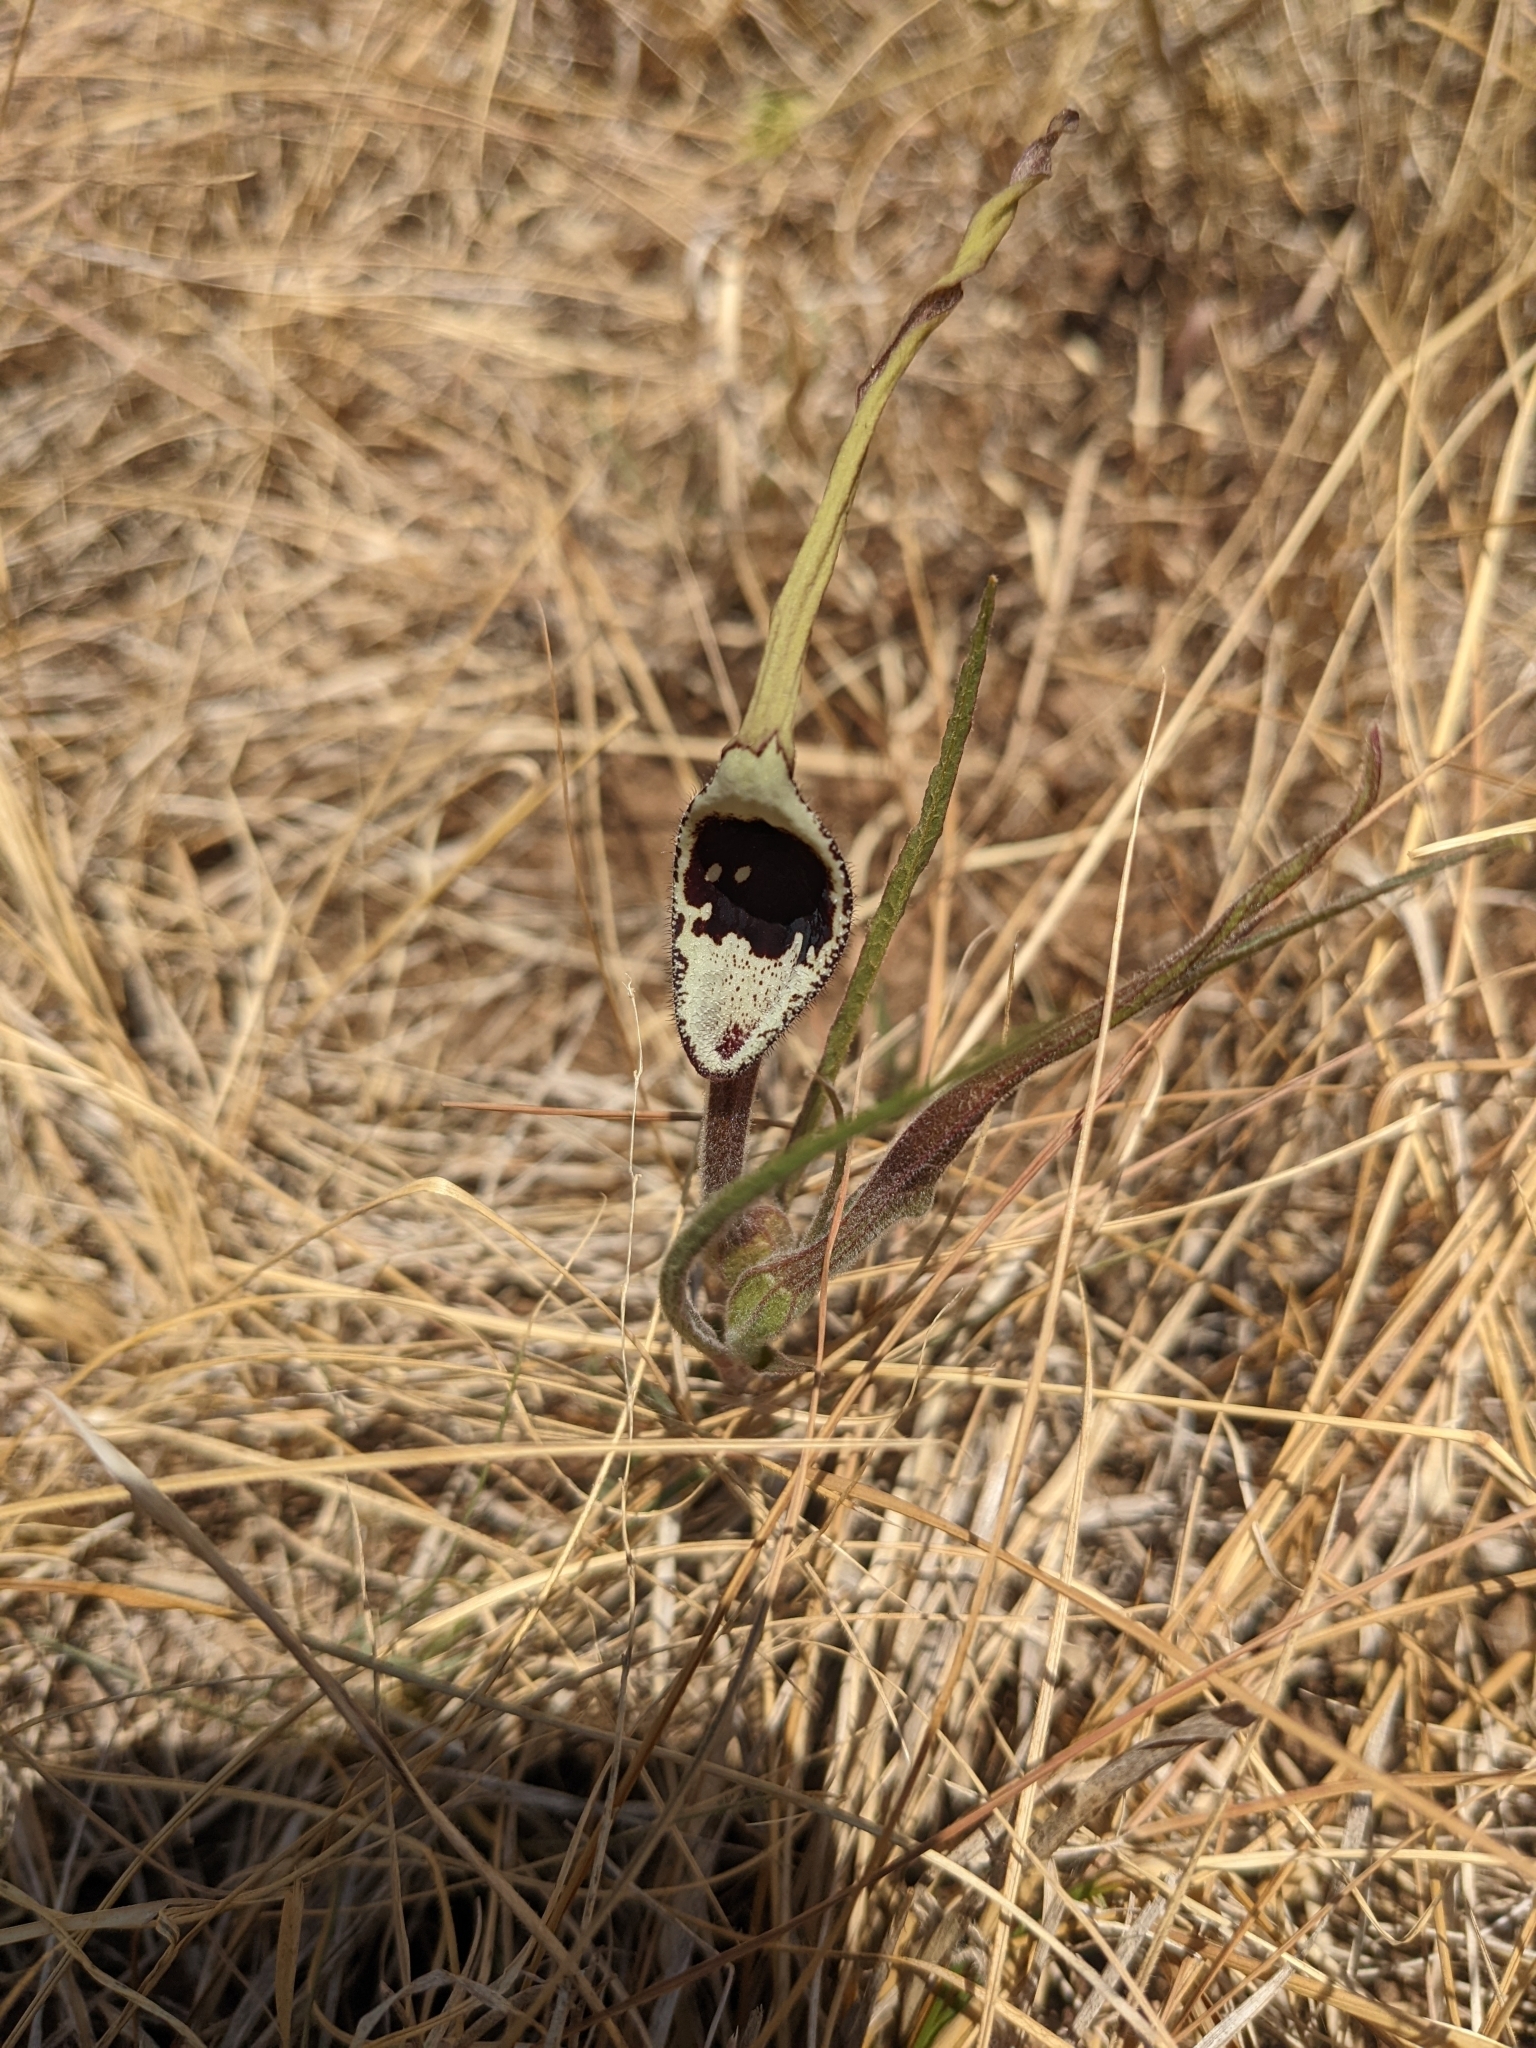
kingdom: Plantae
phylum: Tracheophyta
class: Magnoliopsida
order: Piperales
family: Aristolochiaceae
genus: Aristolochia
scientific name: Aristolochia erecta
